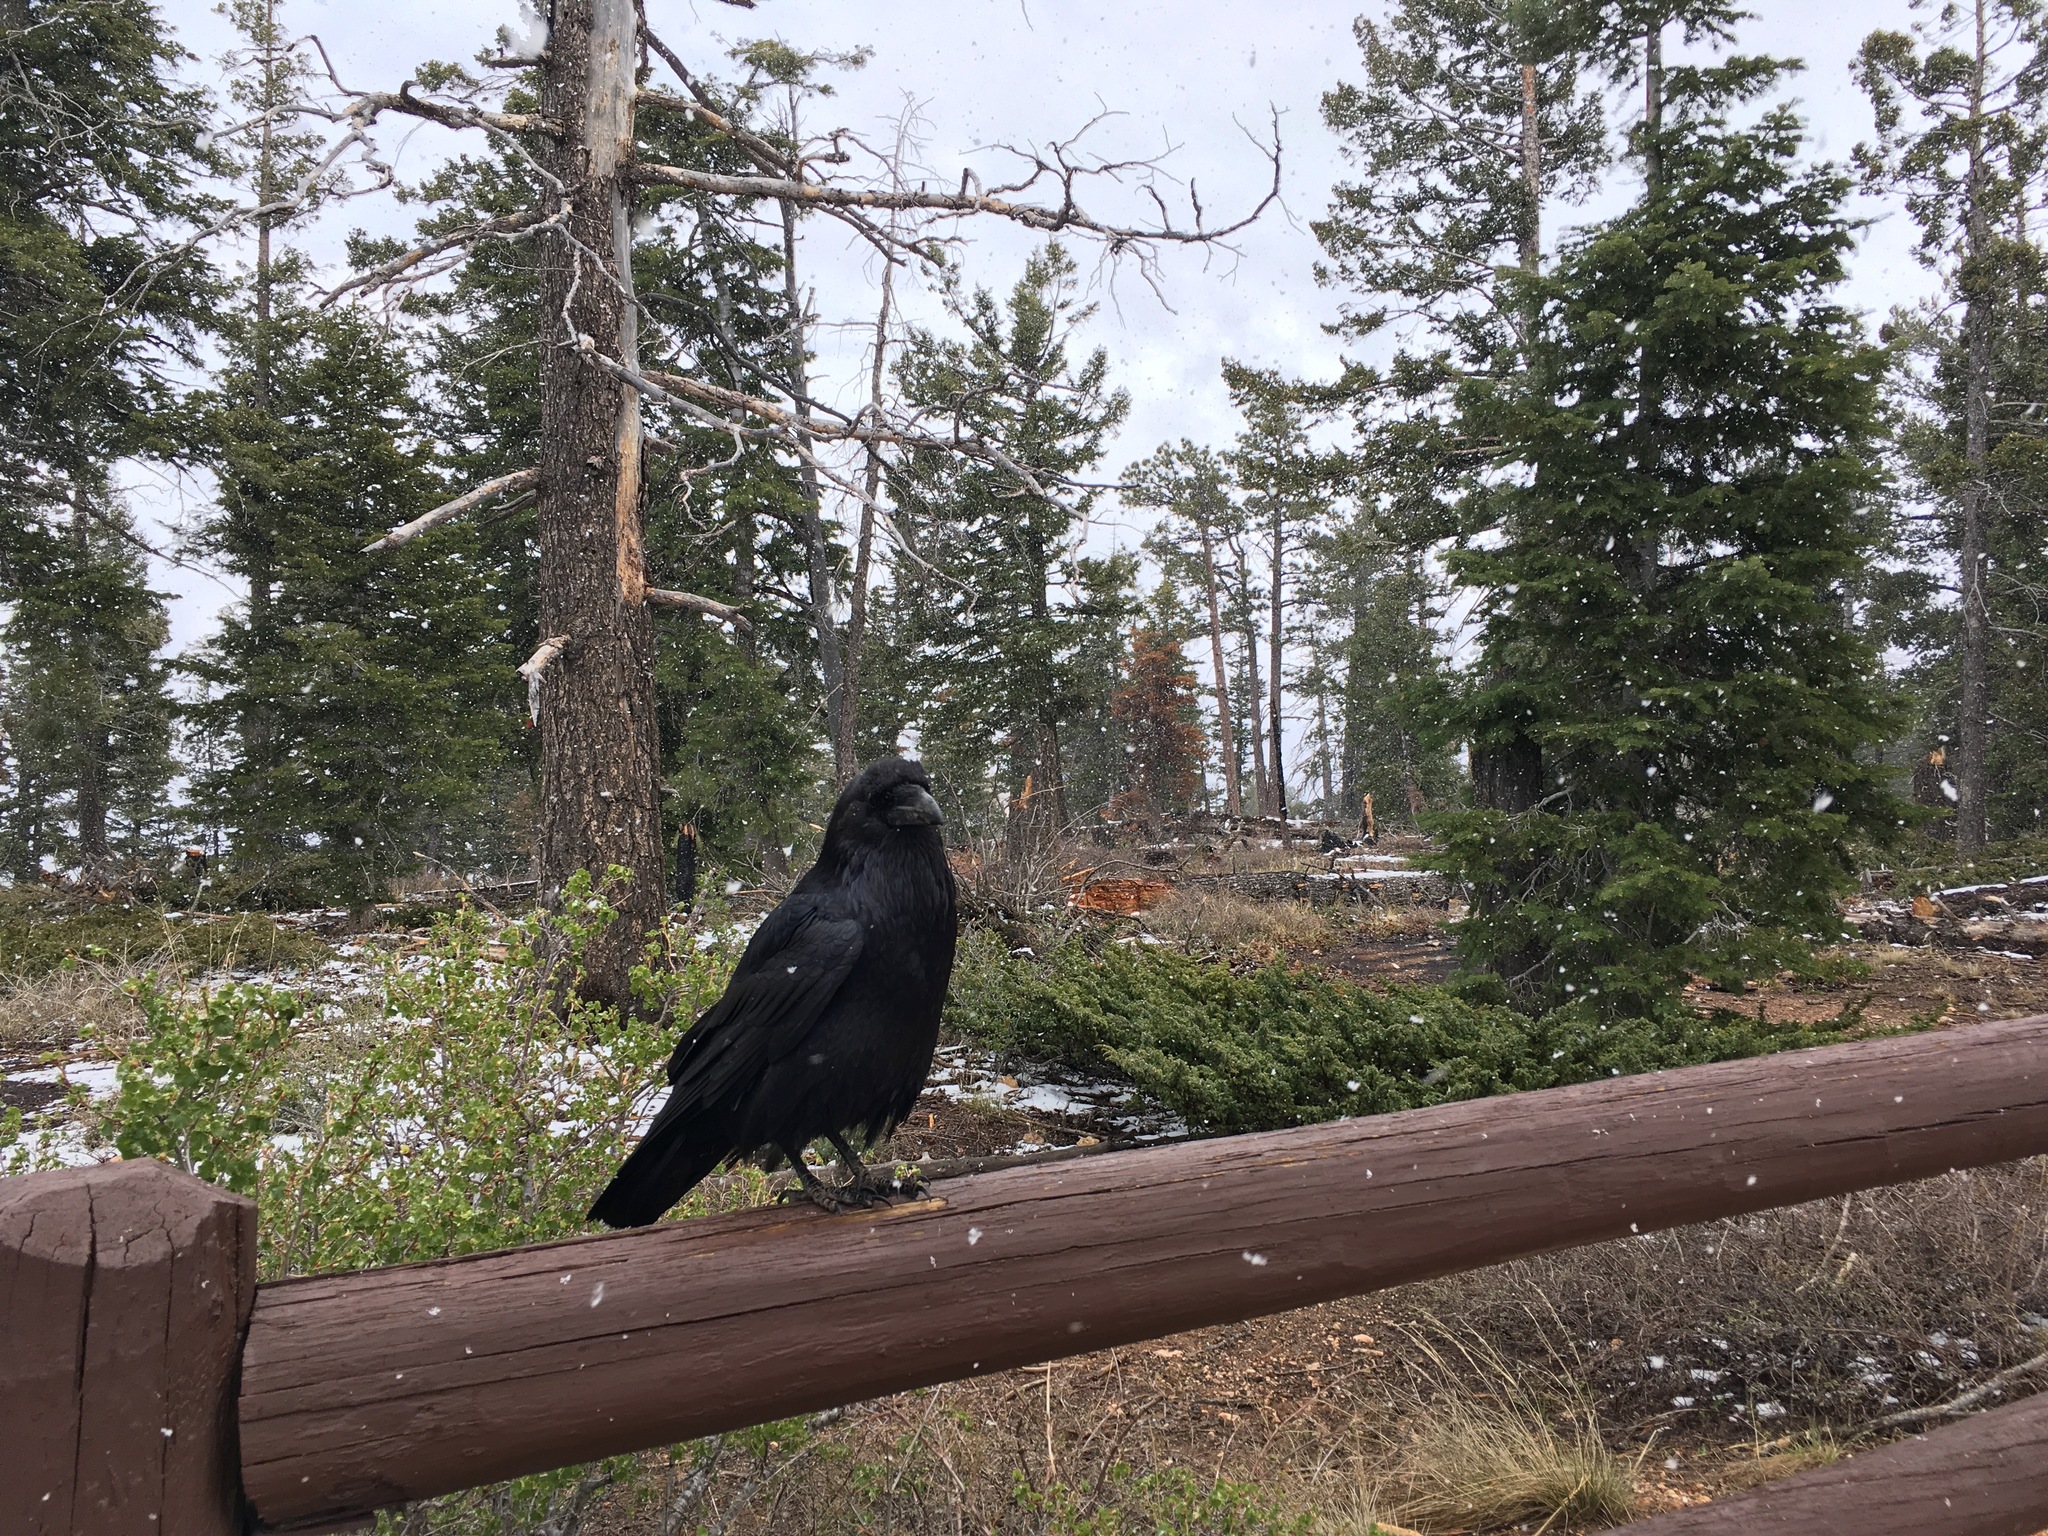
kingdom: Animalia
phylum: Chordata
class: Aves
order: Passeriformes
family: Corvidae
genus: Corvus
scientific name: Corvus corax
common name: Common raven
